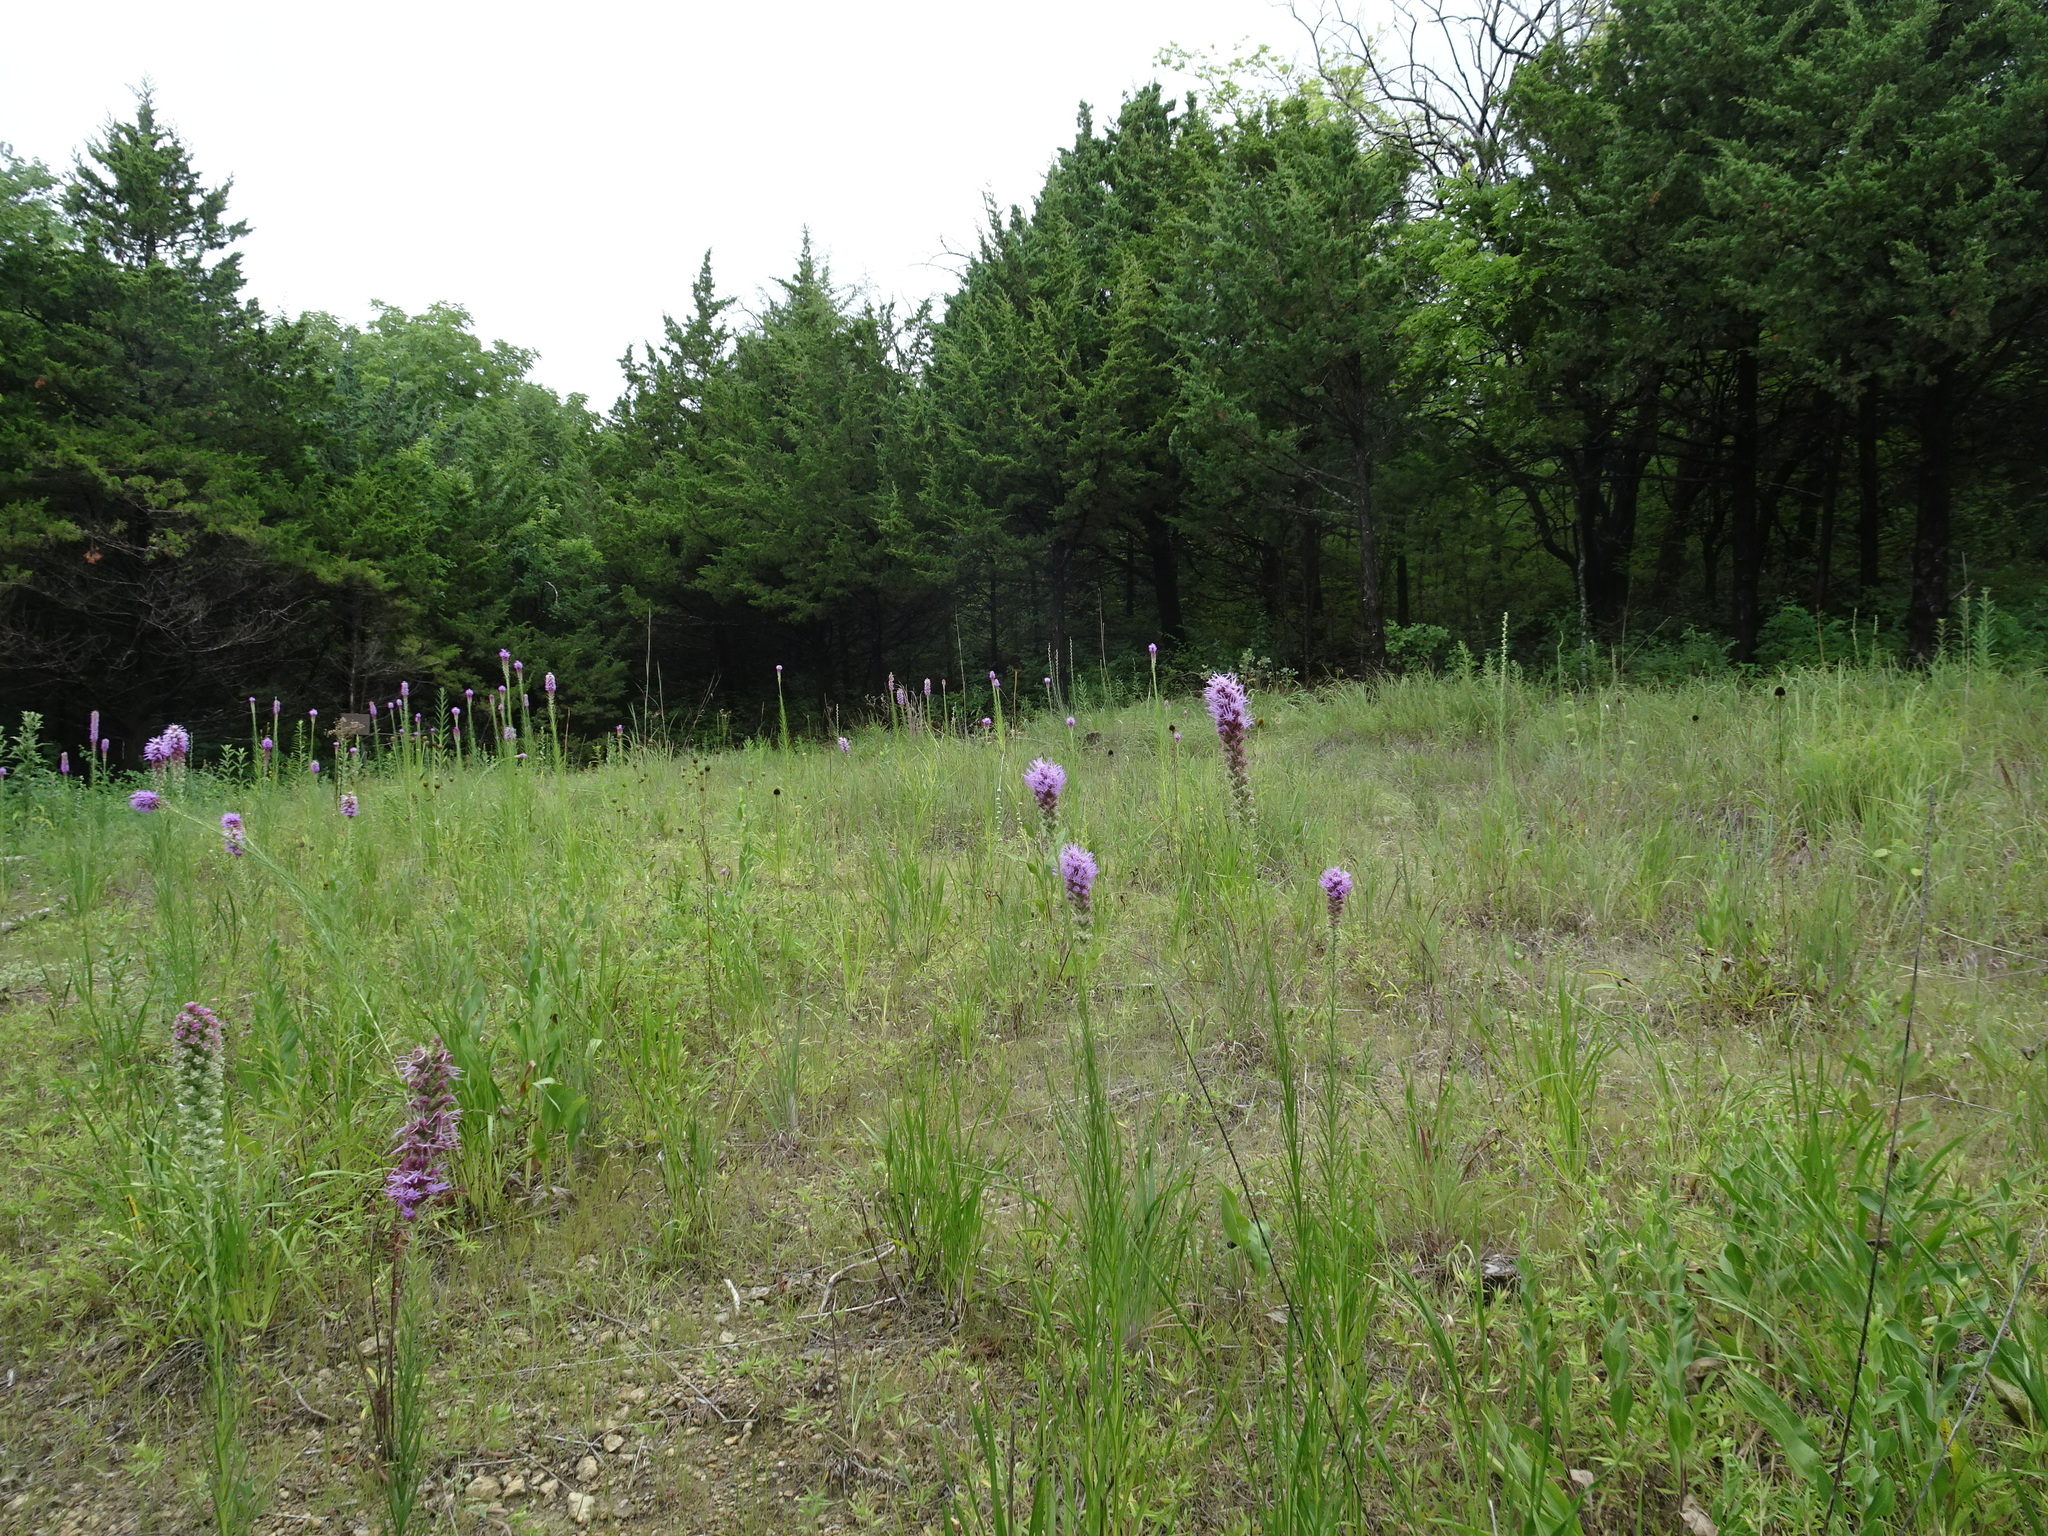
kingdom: Plantae
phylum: Tracheophyta
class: Magnoliopsida
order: Asterales
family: Asteraceae
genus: Liatris
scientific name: Liatris pycnostachya
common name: Cattail gayfeather
